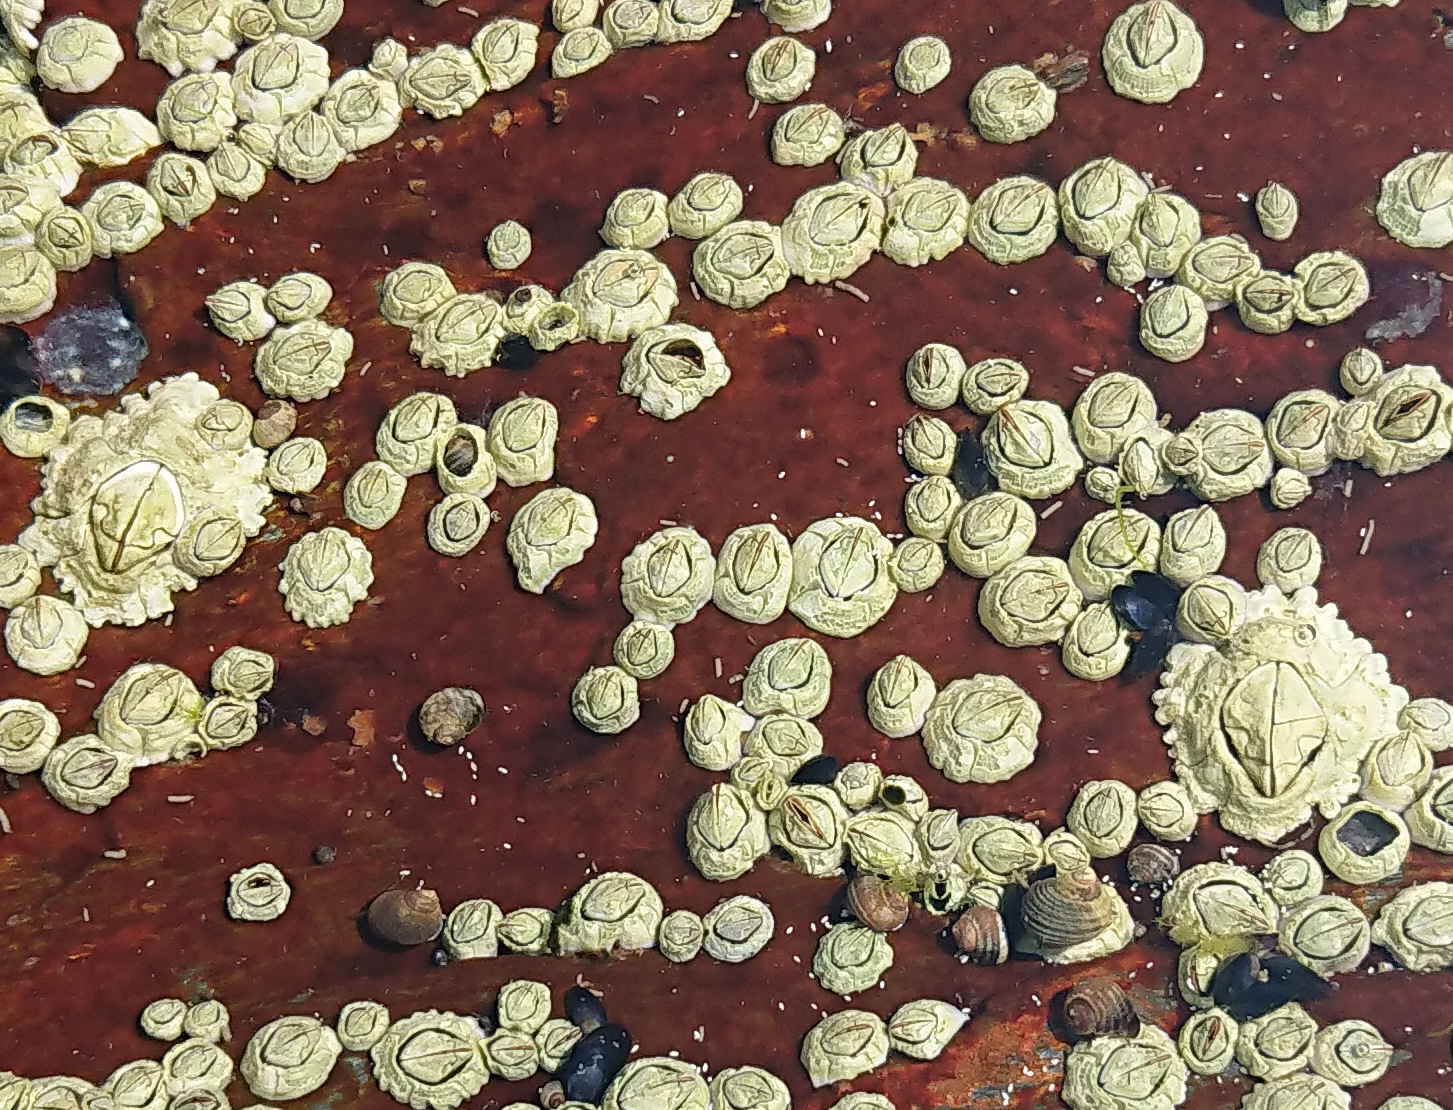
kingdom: Animalia
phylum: Arthropoda
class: Maxillopoda
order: Sessilia
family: Archaeobalanidae
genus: Semibalanus
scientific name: Semibalanus balanoides
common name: Acorn barnacle
